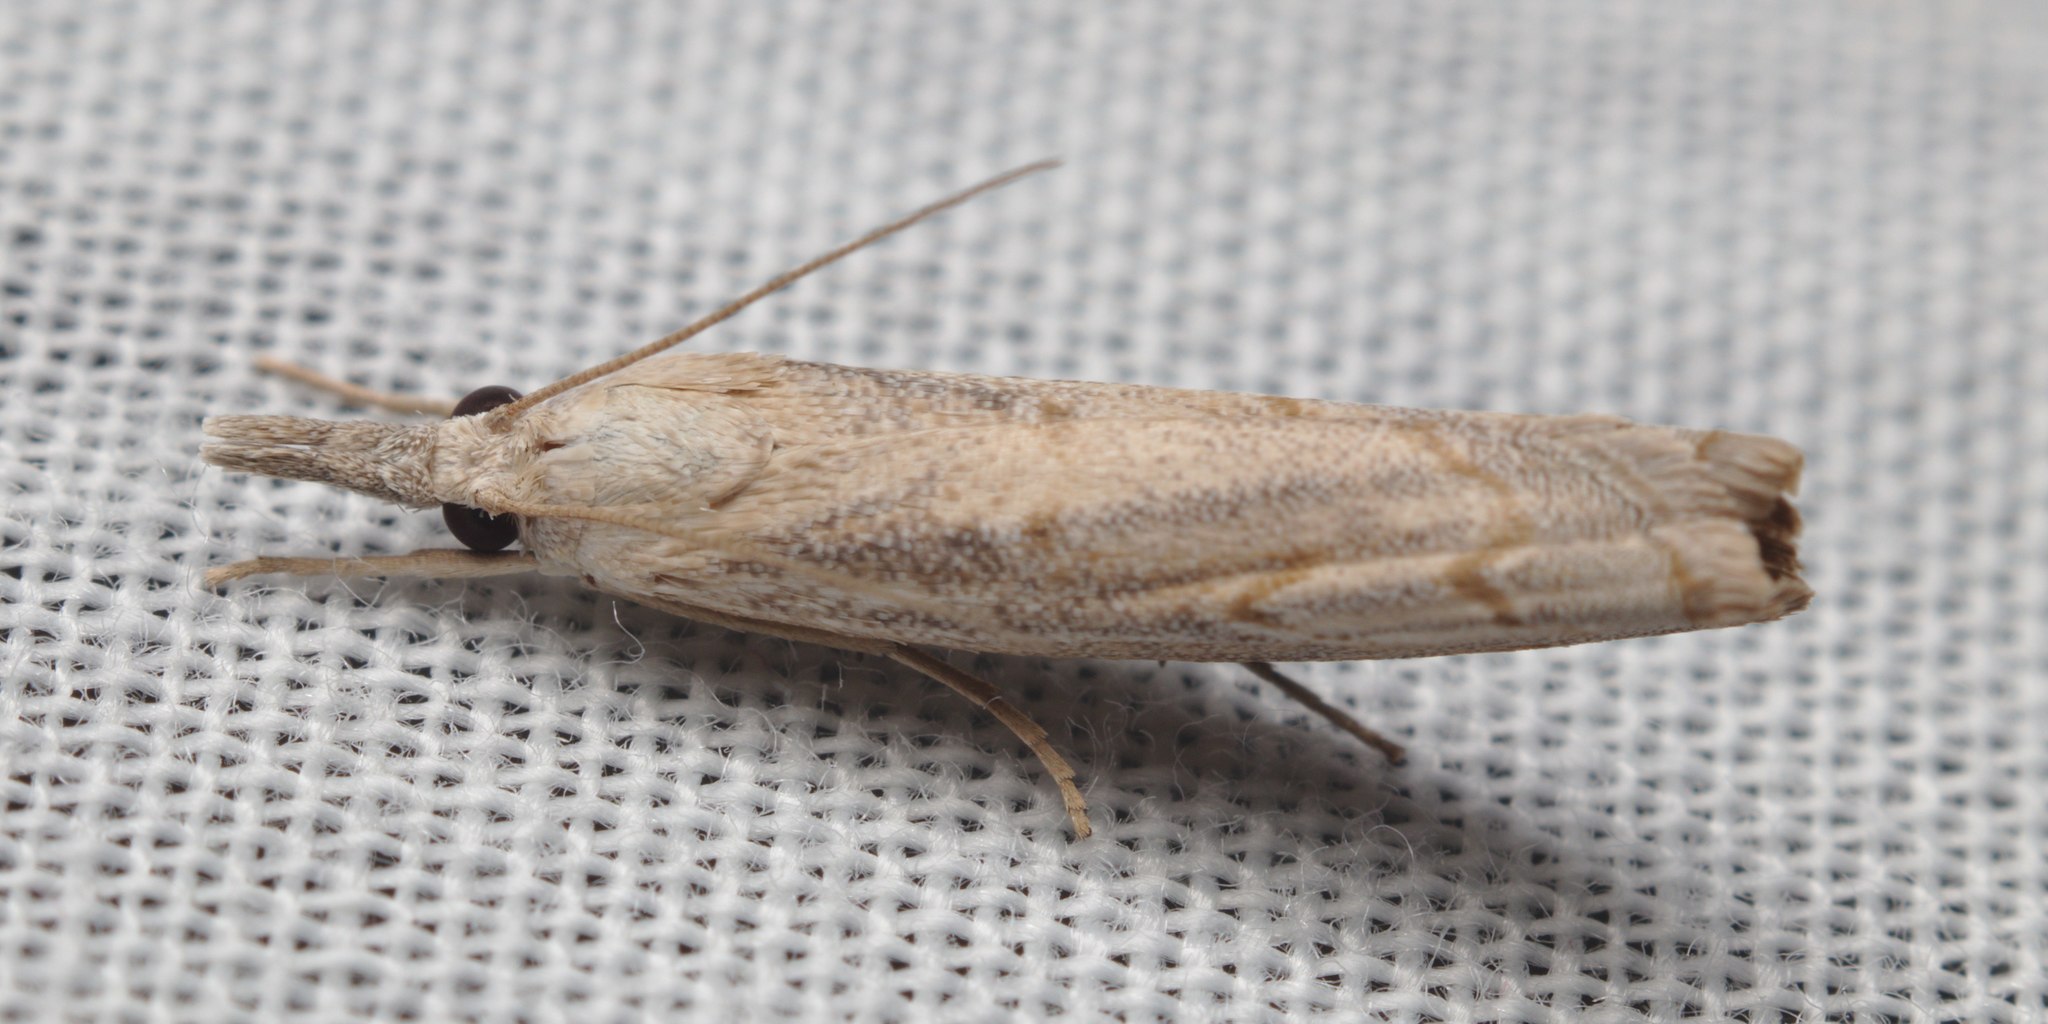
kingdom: Animalia
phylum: Arthropoda
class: Insecta
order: Lepidoptera
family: Crambidae
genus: Culladia
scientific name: Culladia cuneiferellus
